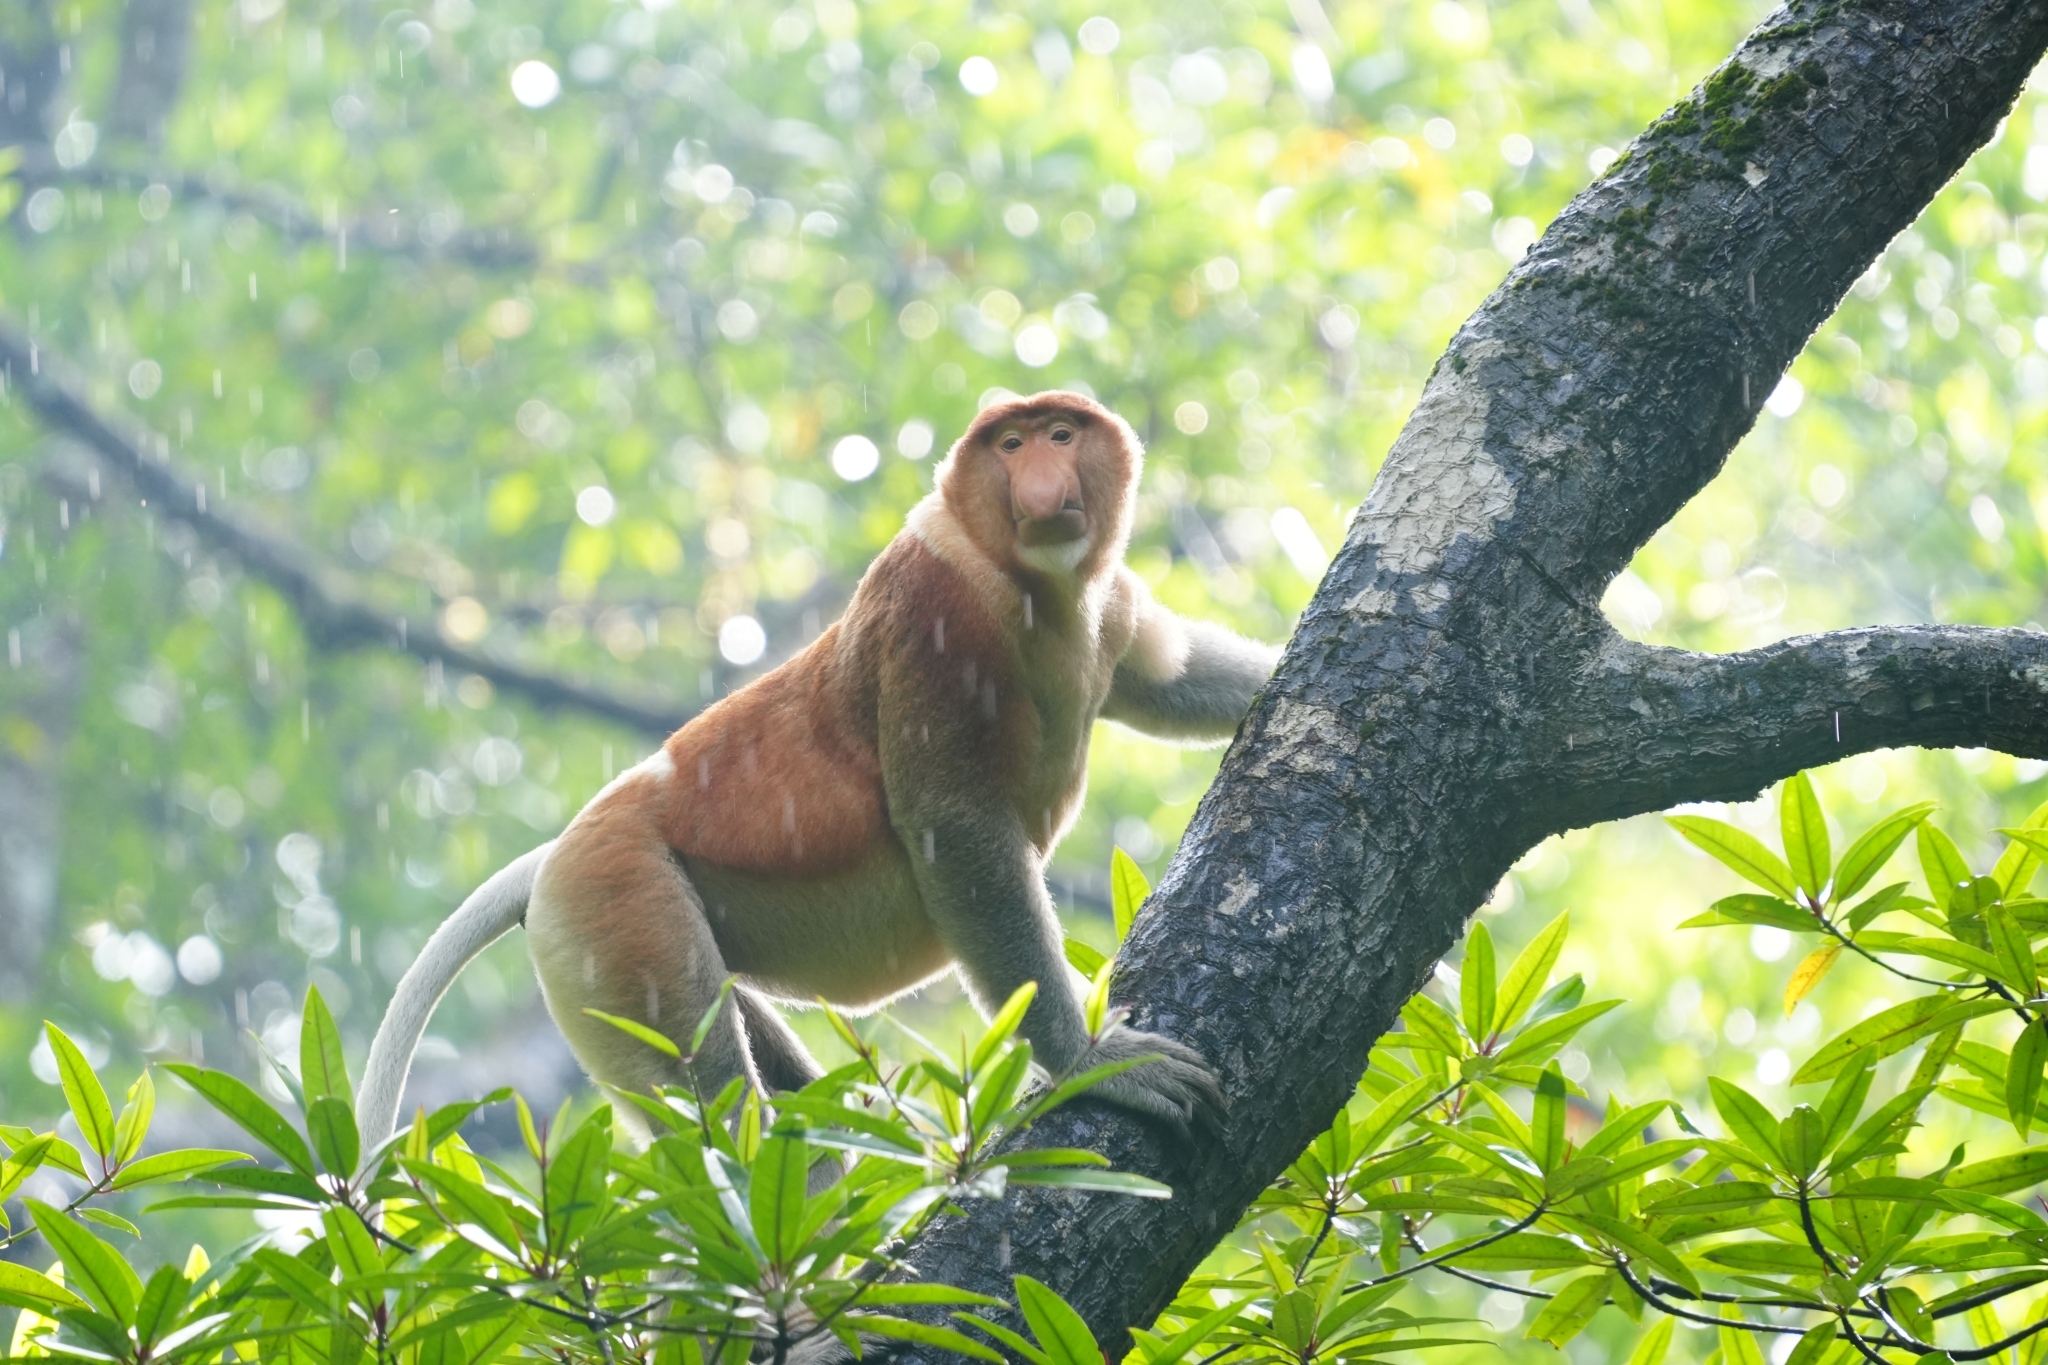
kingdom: Animalia
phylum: Chordata
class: Mammalia
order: Primates
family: Cercopithecidae
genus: Nasalis
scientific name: Nasalis larvatus
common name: Proboscis monkey
